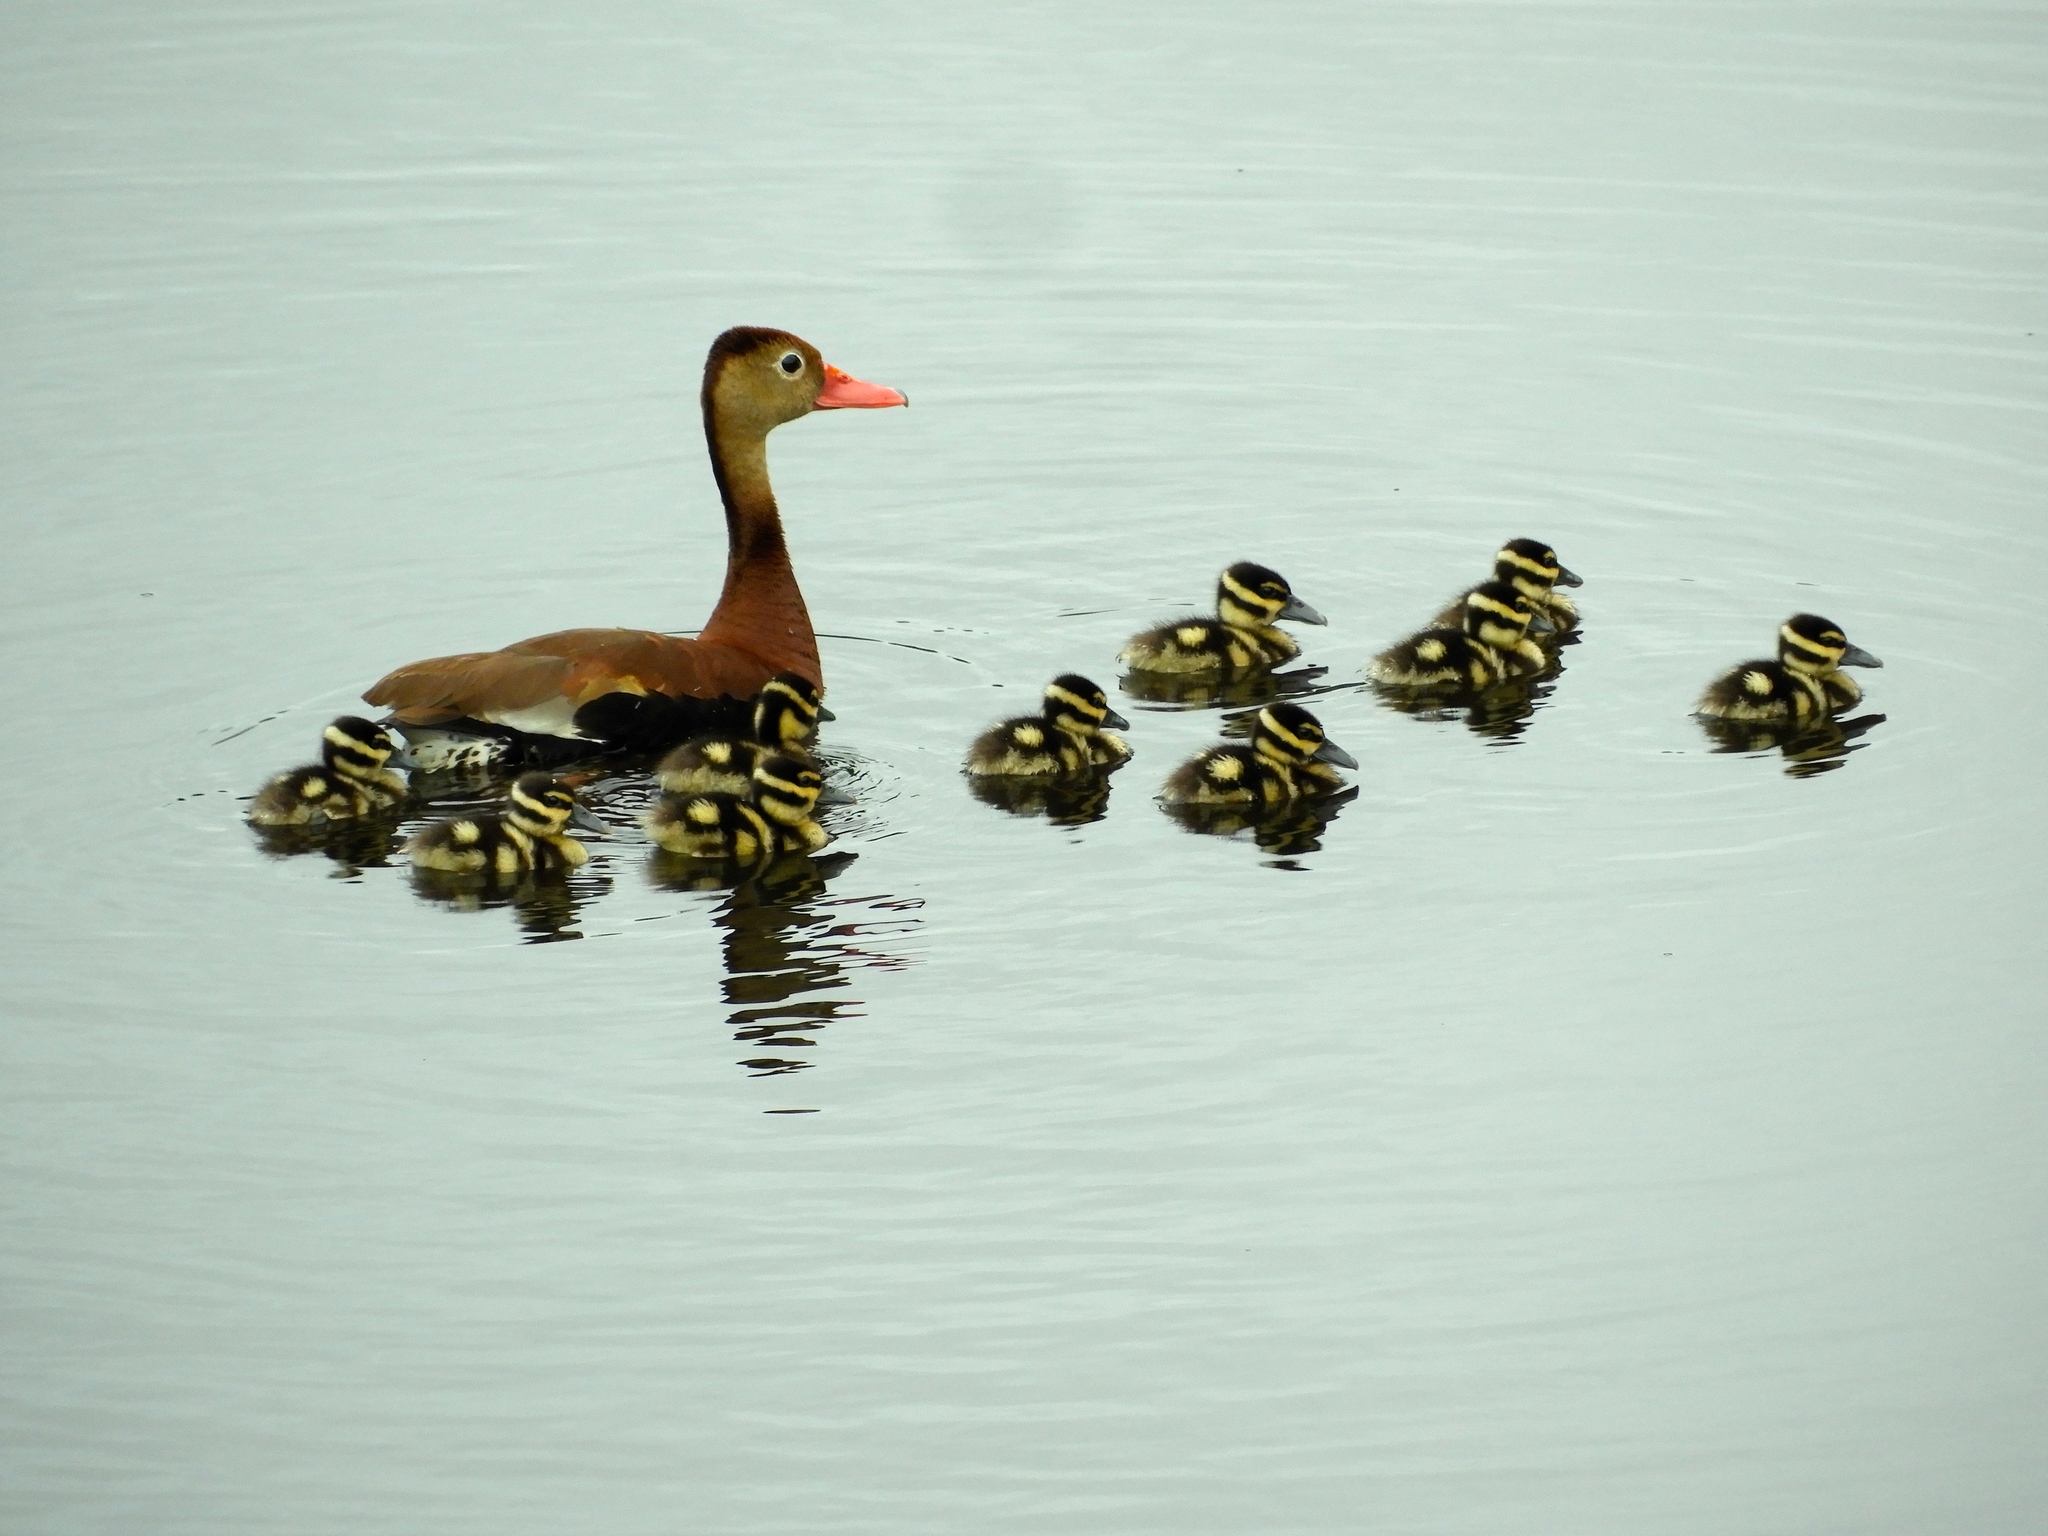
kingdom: Animalia
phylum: Chordata
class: Aves
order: Anseriformes
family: Anatidae
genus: Dendrocygna
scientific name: Dendrocygna autumnalis
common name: Black-bellied whistling duck
